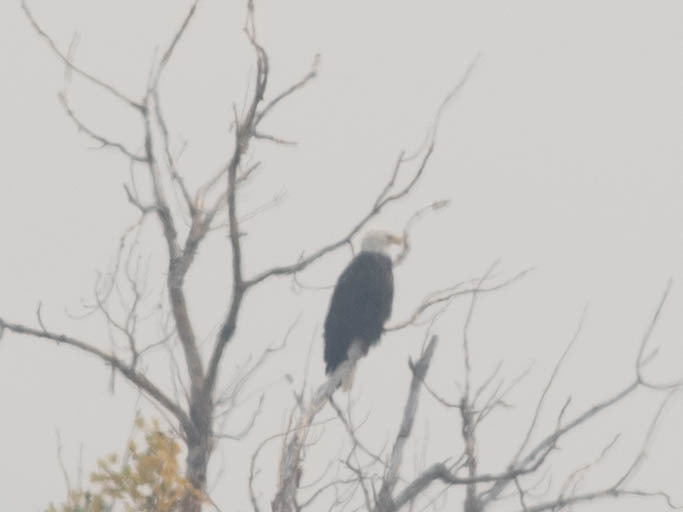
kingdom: Animalia
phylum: Chordata
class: Aves
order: Accipitriformes
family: Accipitridae
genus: Haliaeetus
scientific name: Haliaeetus leucocephalus
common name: Bald eagle
